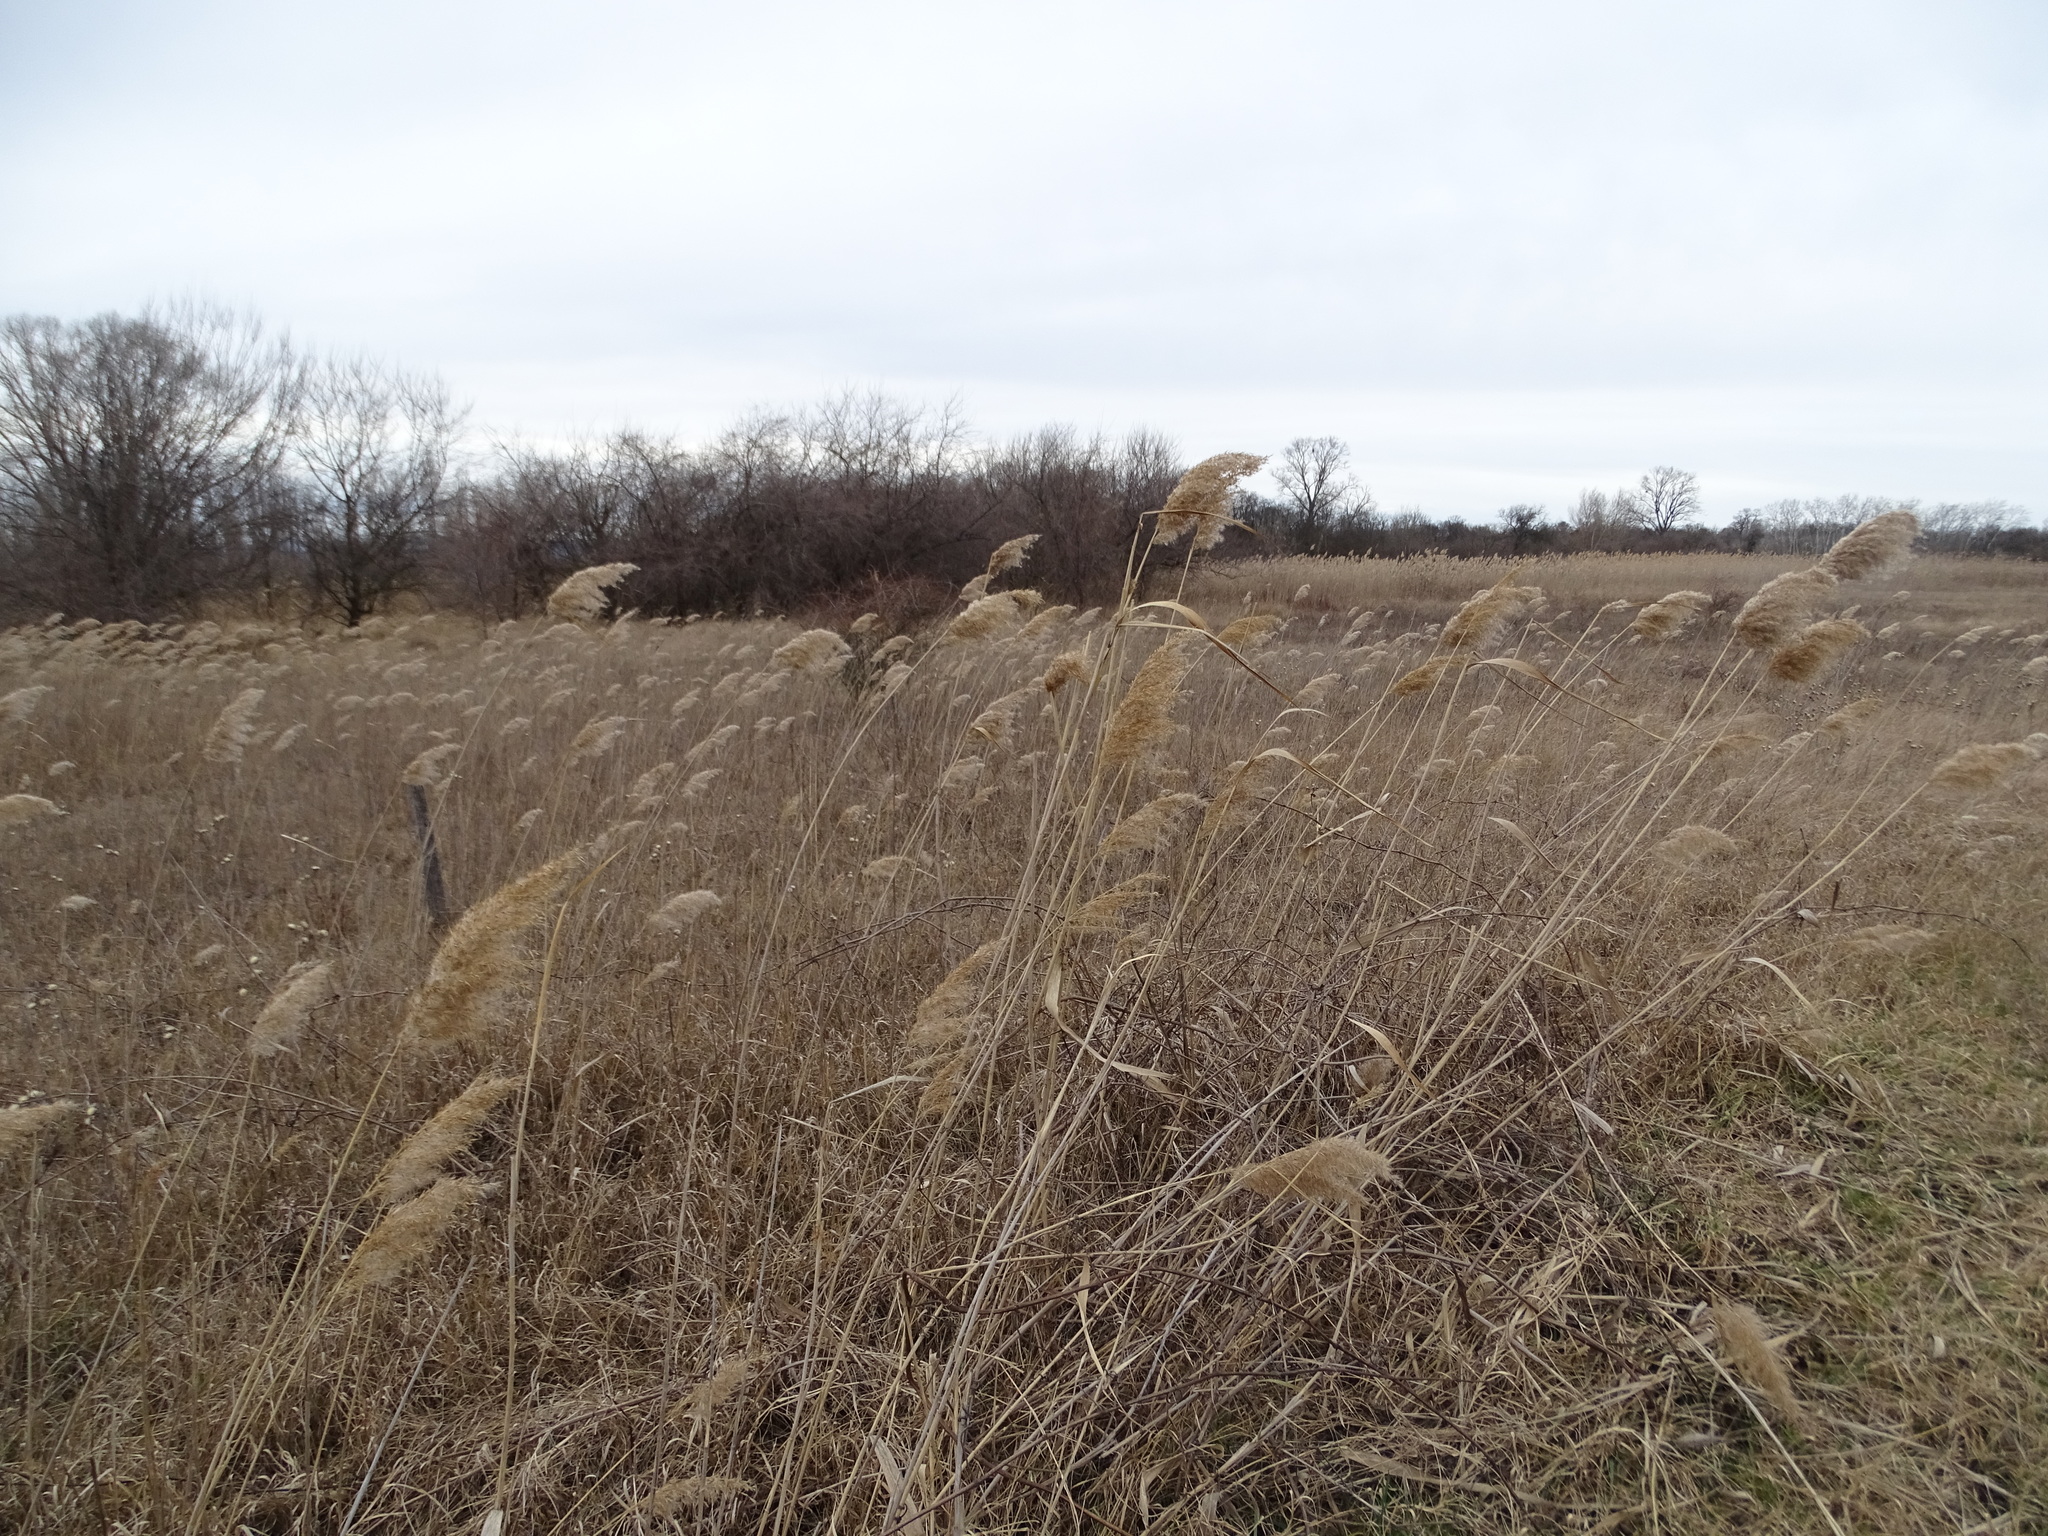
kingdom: Plantae
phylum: Tracheophyta
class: Liliopsida
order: Poales
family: Poaceae
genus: Phragmites
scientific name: Phragmites australis
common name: Common reed
